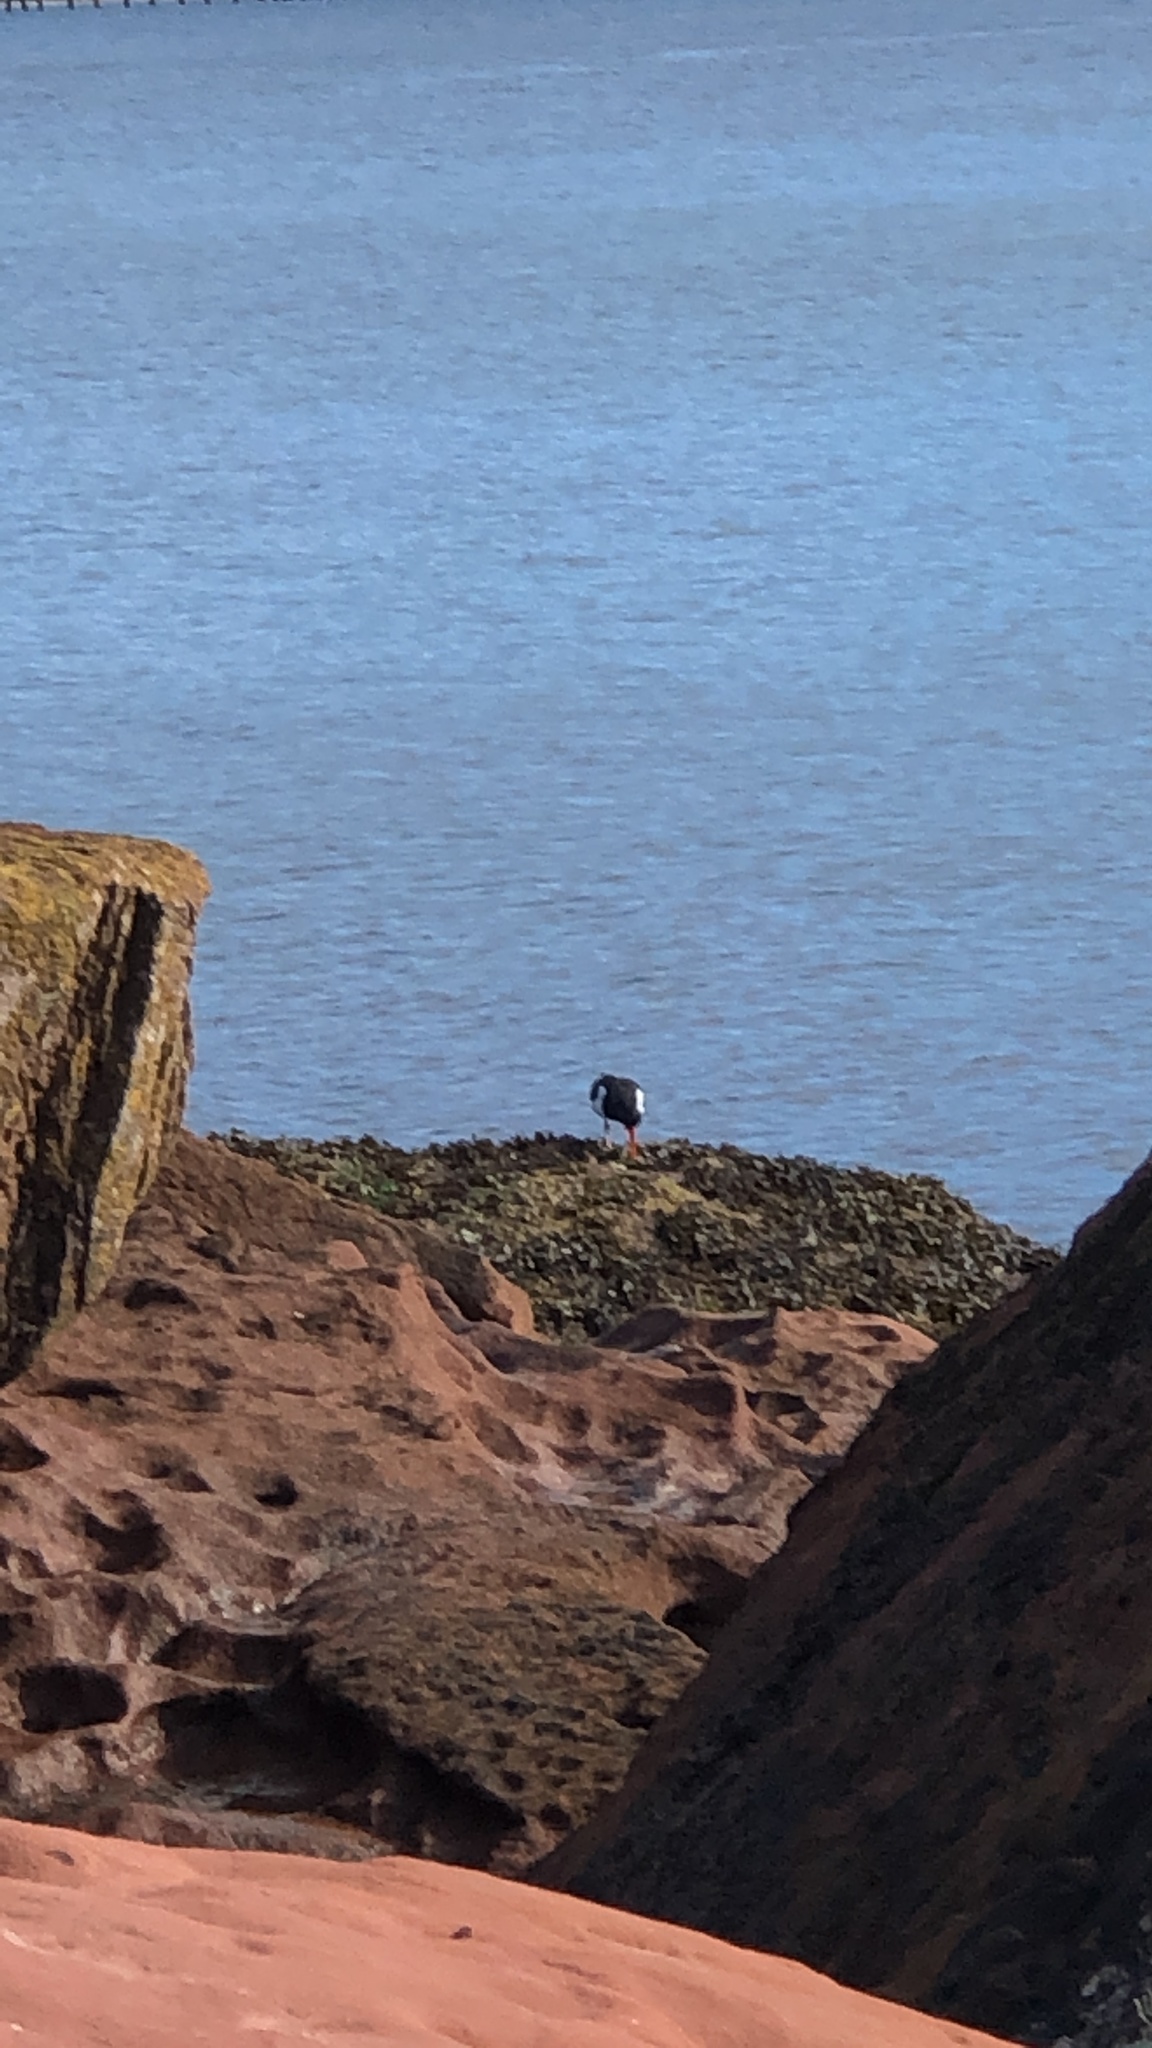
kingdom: Animalia
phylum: Chordata
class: Aves
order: Charadriiformes
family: Haematopodidae
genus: Haematopus
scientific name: Haematopus ostralegus
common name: Eurasian oystercatcher
